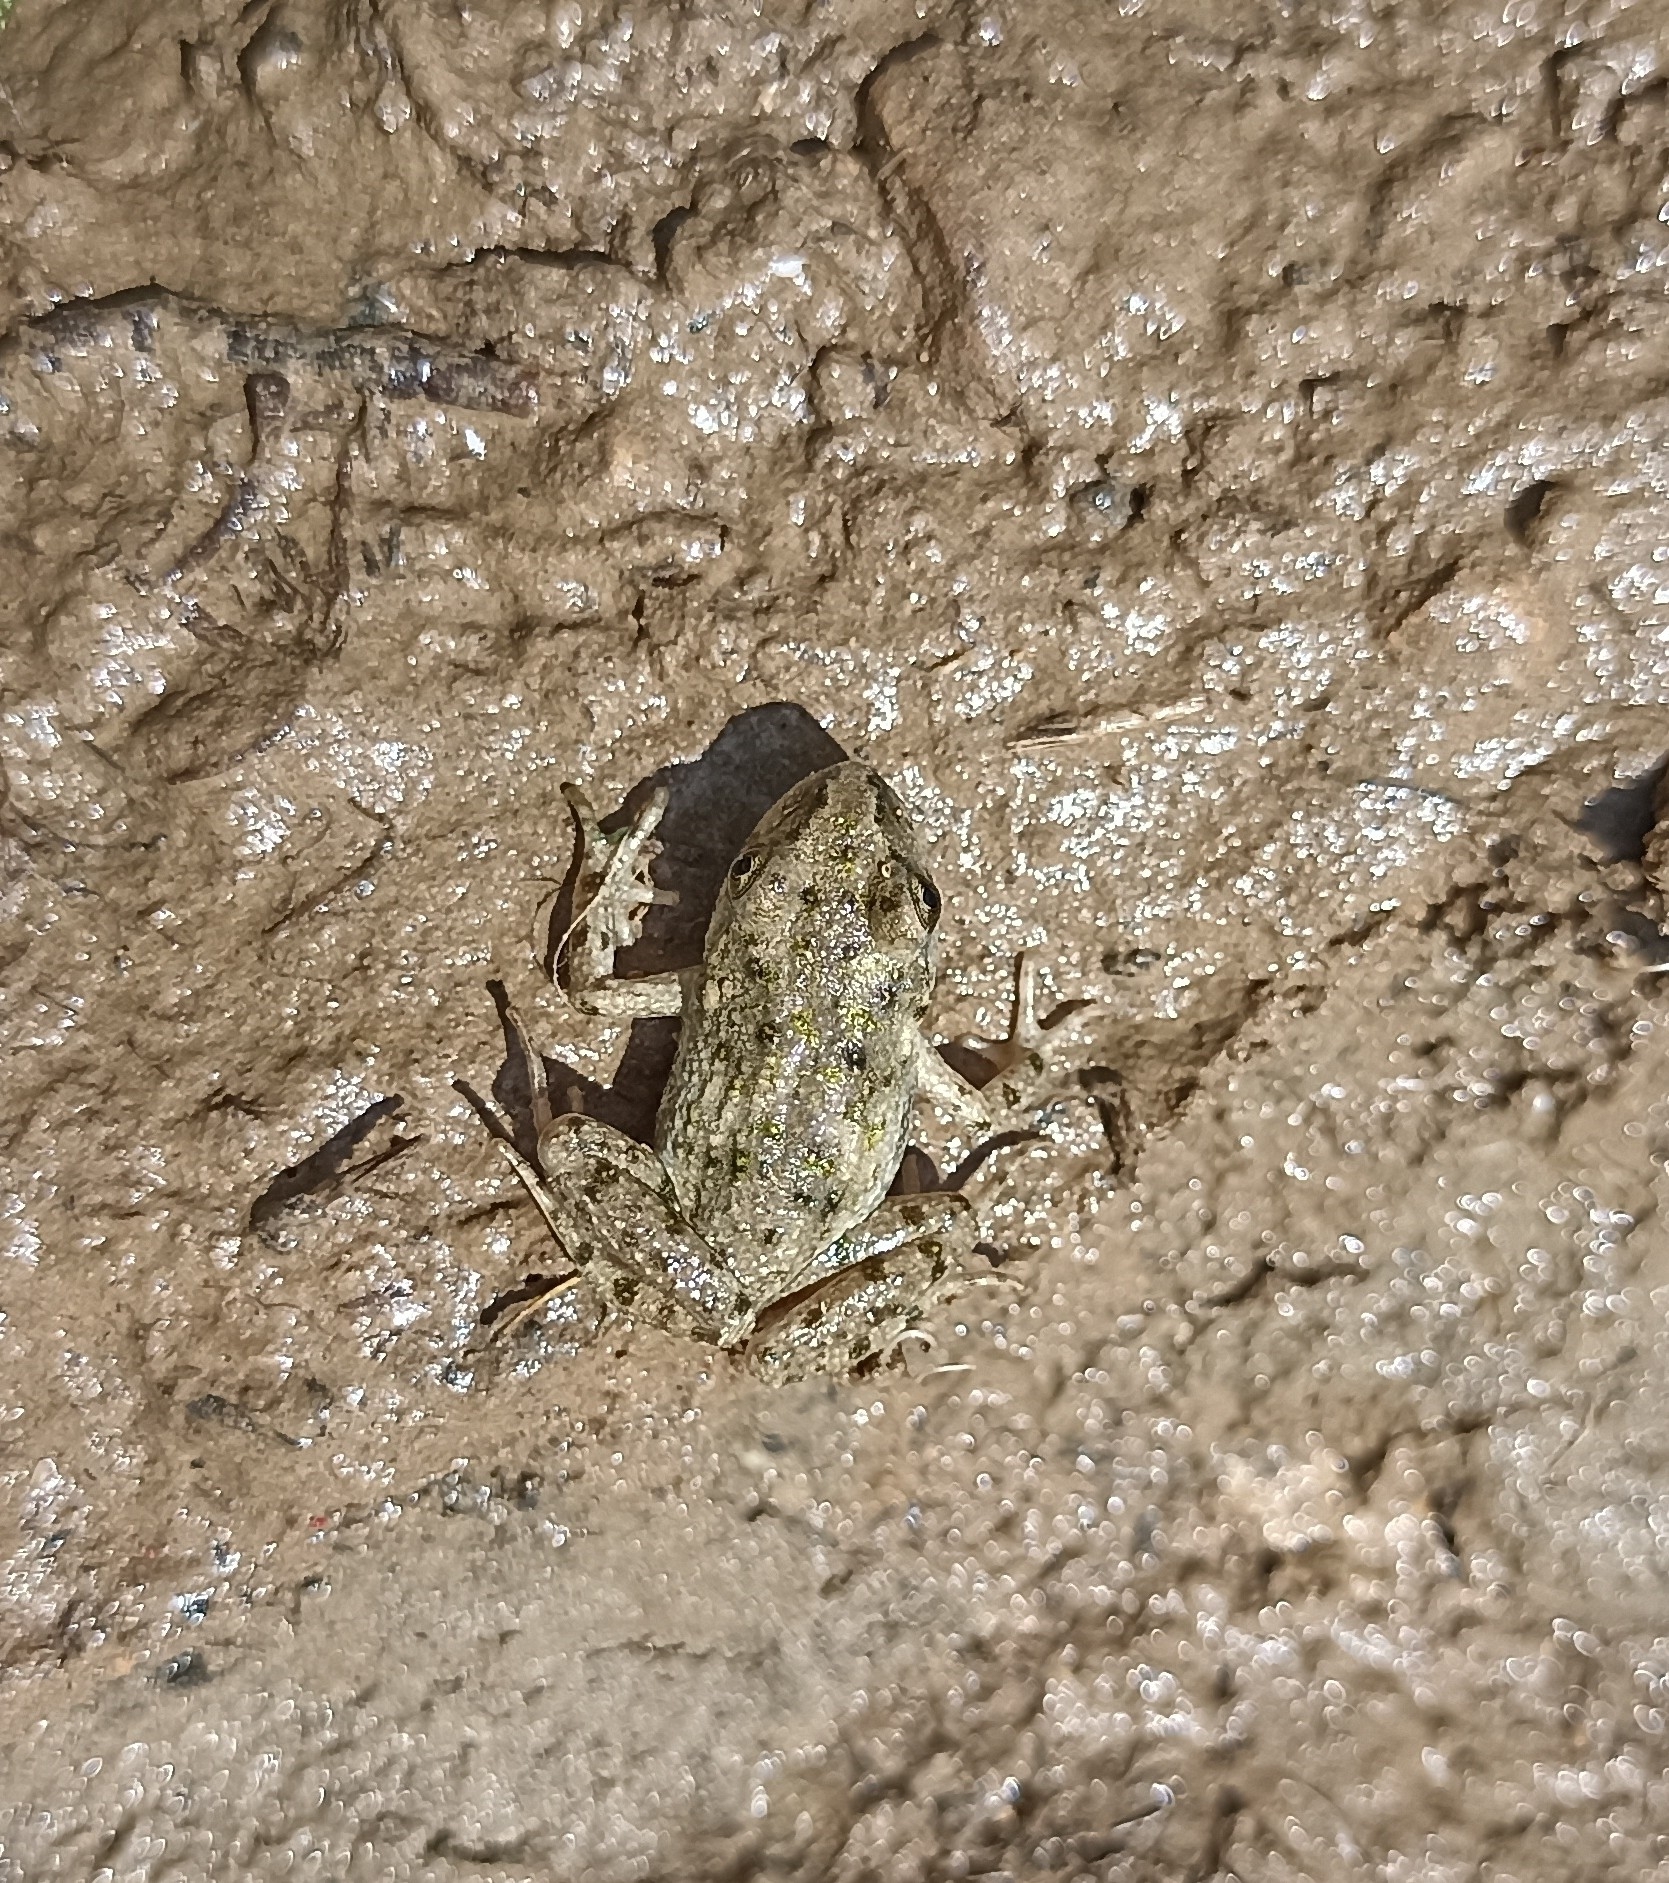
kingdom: Animalia
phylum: Chordata
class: Amphibia
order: Anura
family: Pelodytidae
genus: Pelodytes
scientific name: Pelodytes punctatus
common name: Parsley frog
